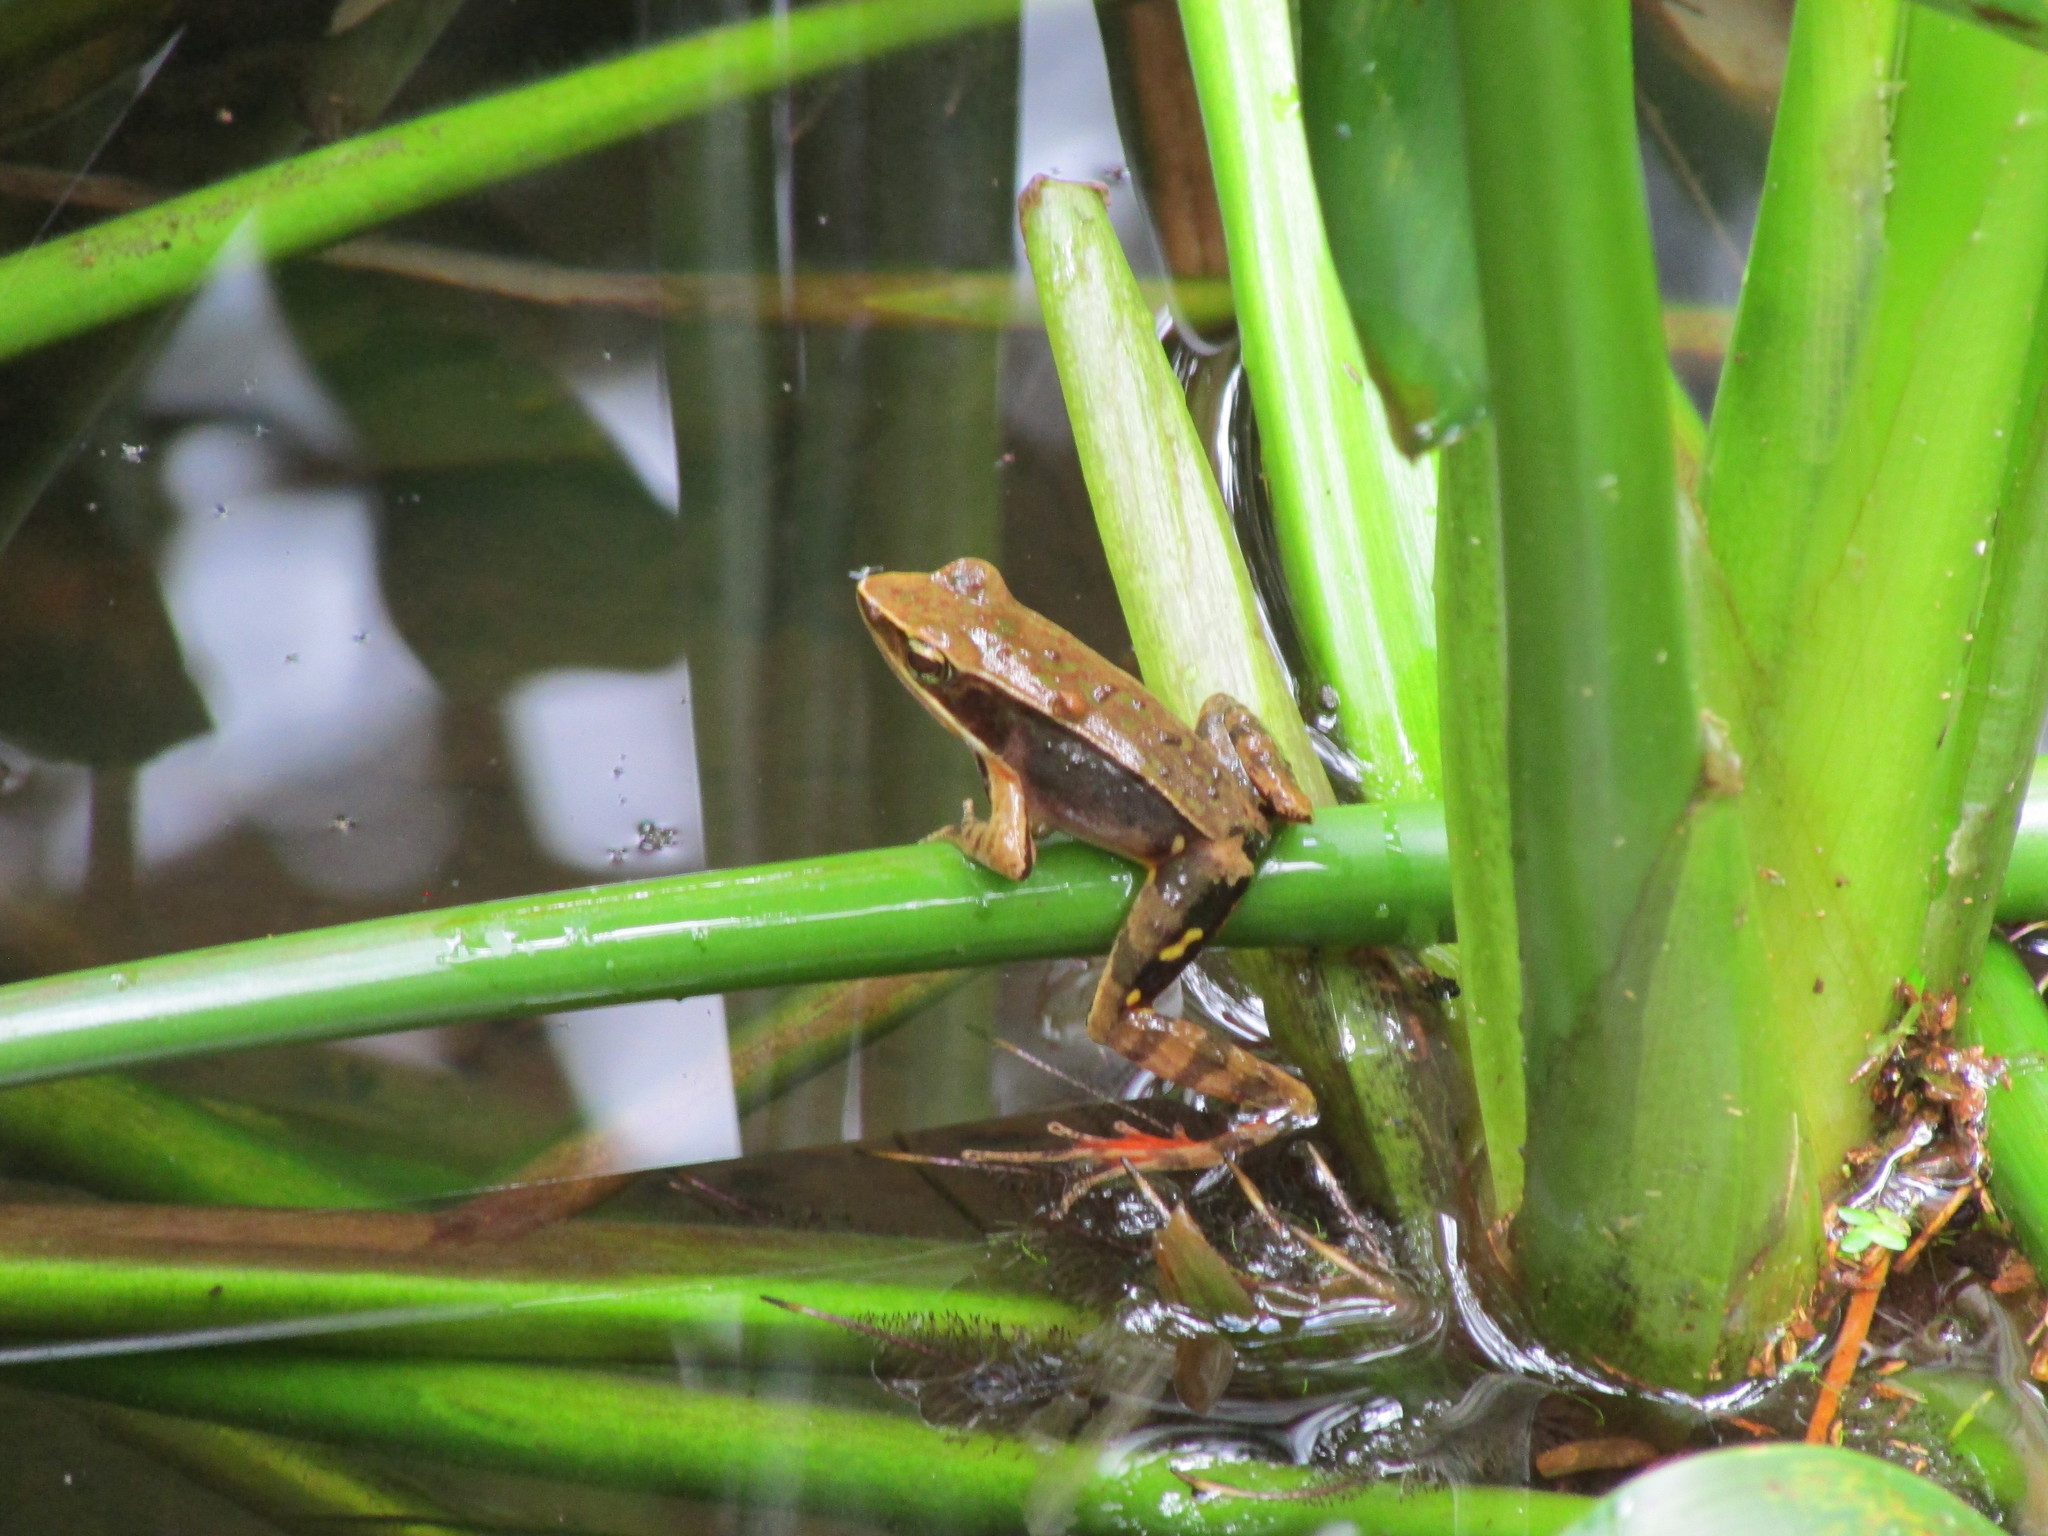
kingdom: Animalia
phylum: Chordata
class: Amphibia
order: Anura
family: Ranidae
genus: Lithobates
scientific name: Lithobates warszewitschii
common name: Warszewitsch's frog
